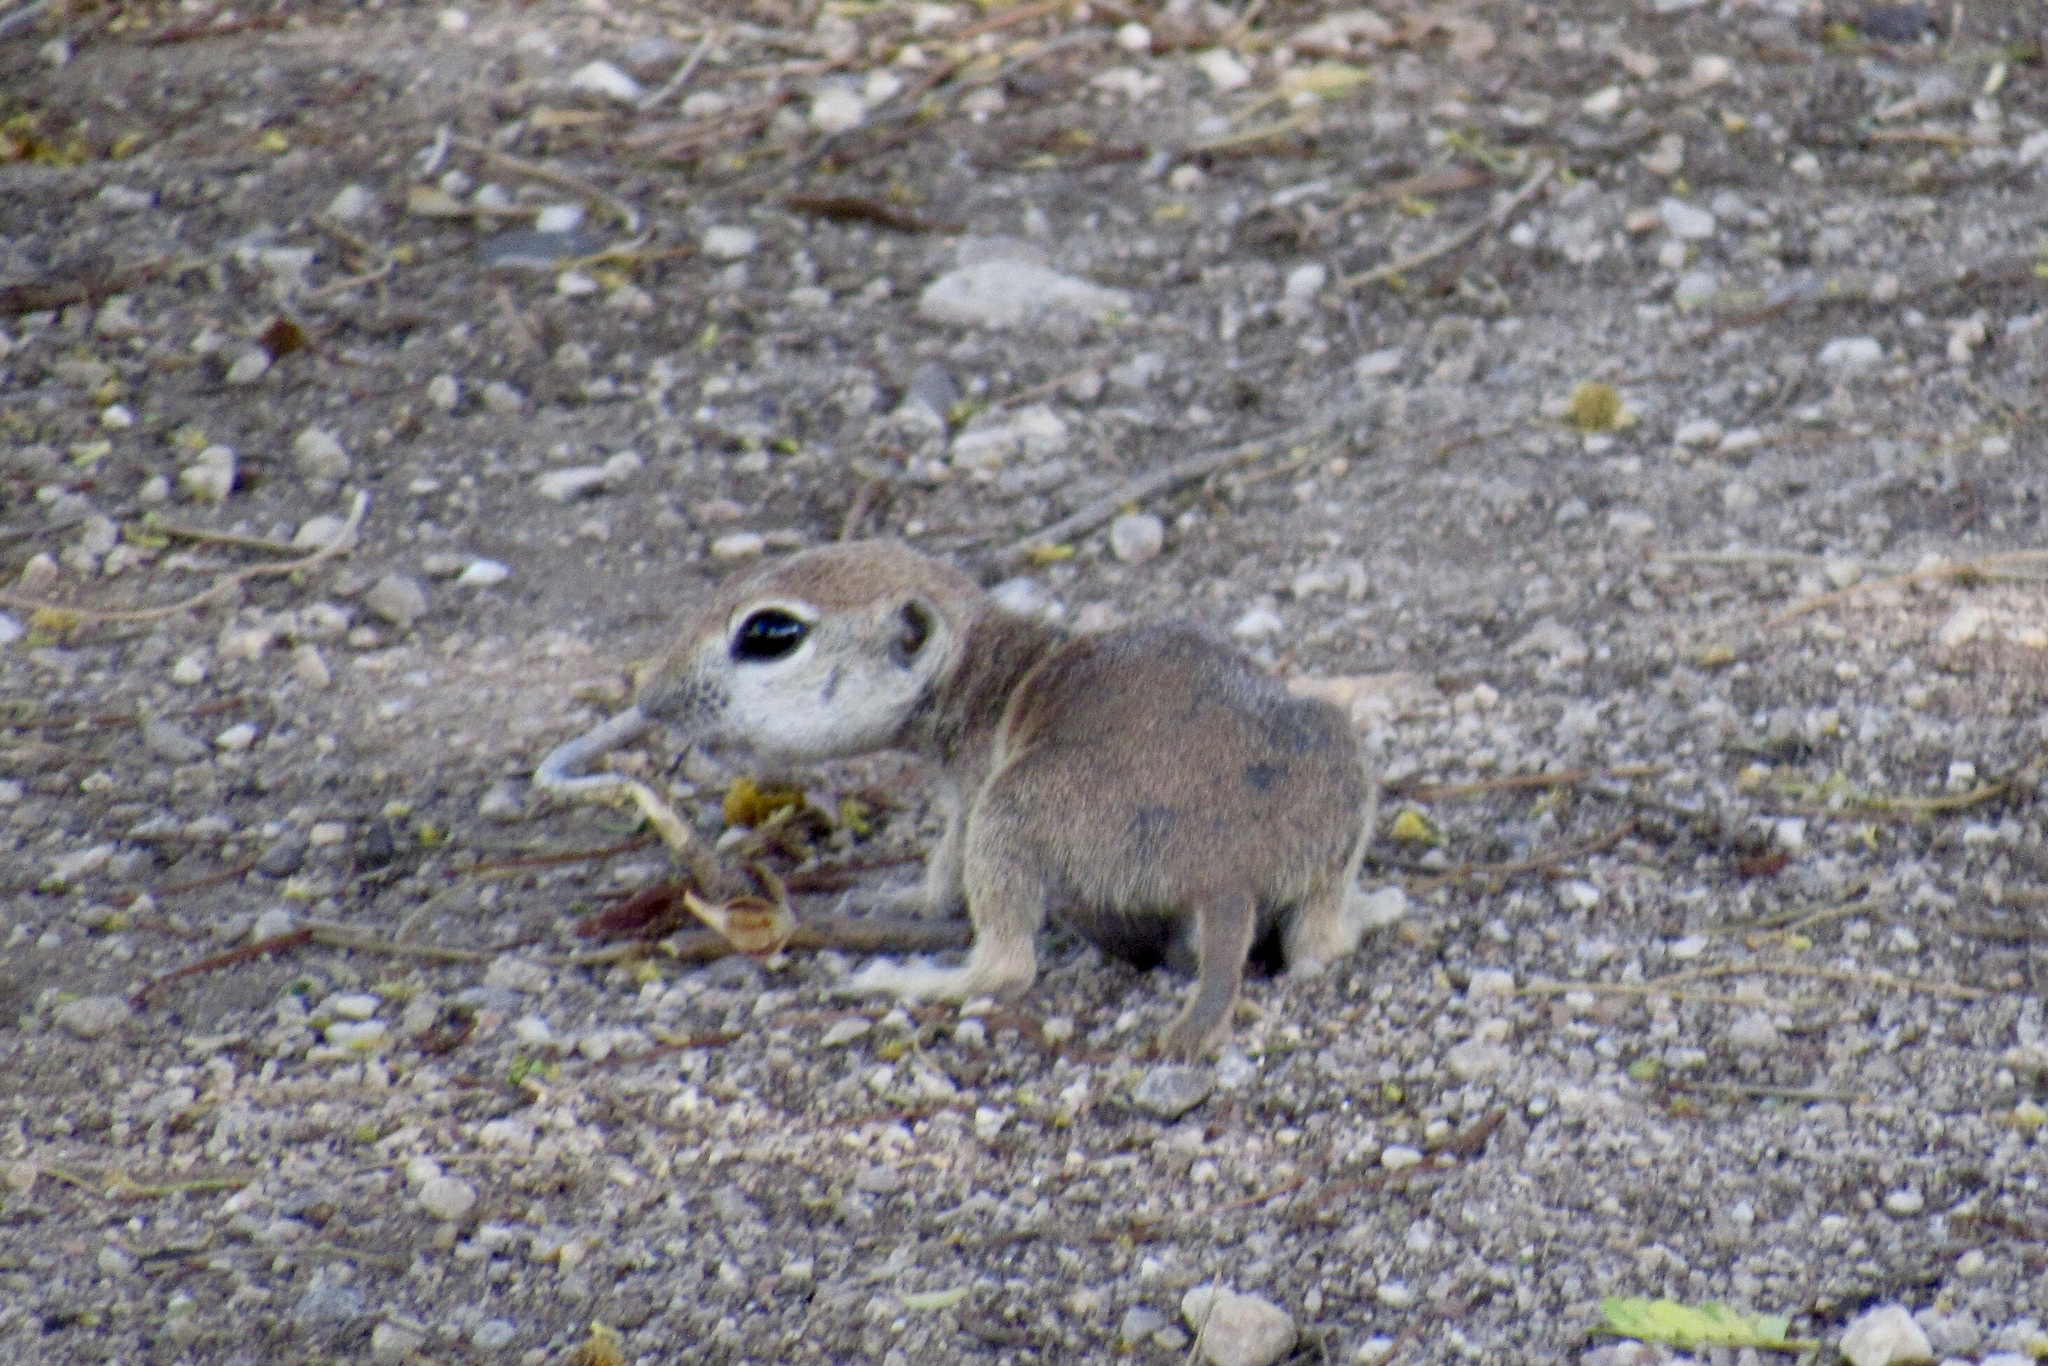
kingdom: Animalia
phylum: Chordata
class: Mammalia
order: Rodentia
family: Sciuridae
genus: Xerospermophilus
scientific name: Xerospermophilus tereticaudus
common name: Round-tailed ground squirrel
